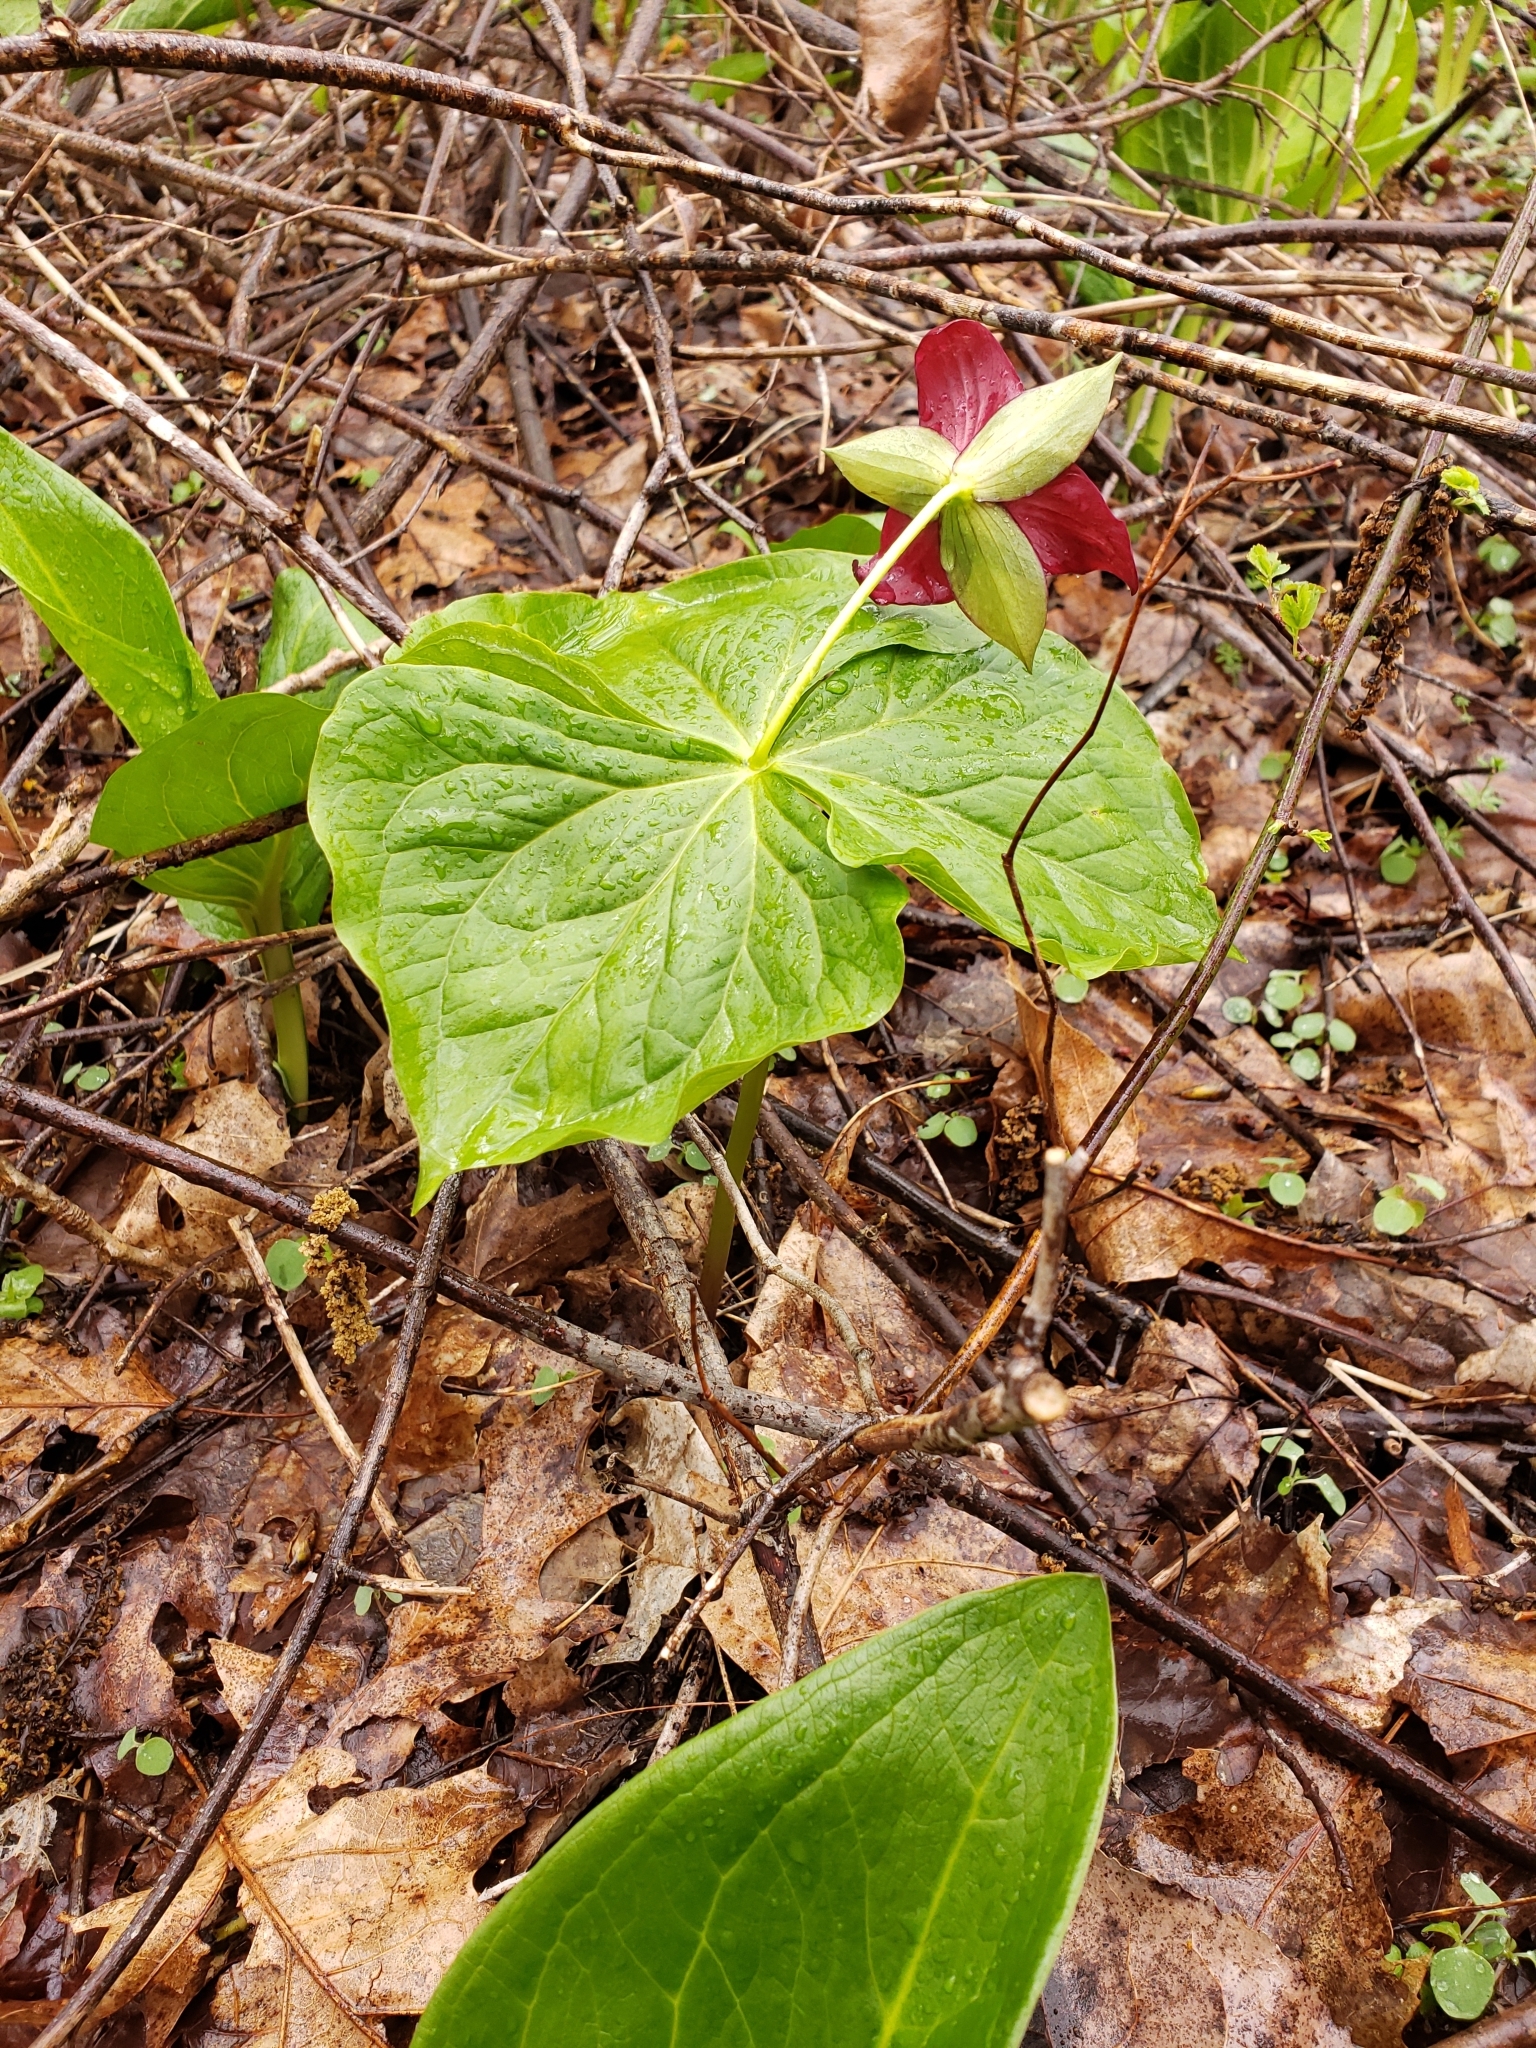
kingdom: Plantae
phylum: Tracheophyta
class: Liliopsida
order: Liliales
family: Melanthiaceae
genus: Trillium
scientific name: Trillium erectum
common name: Purple trillium
